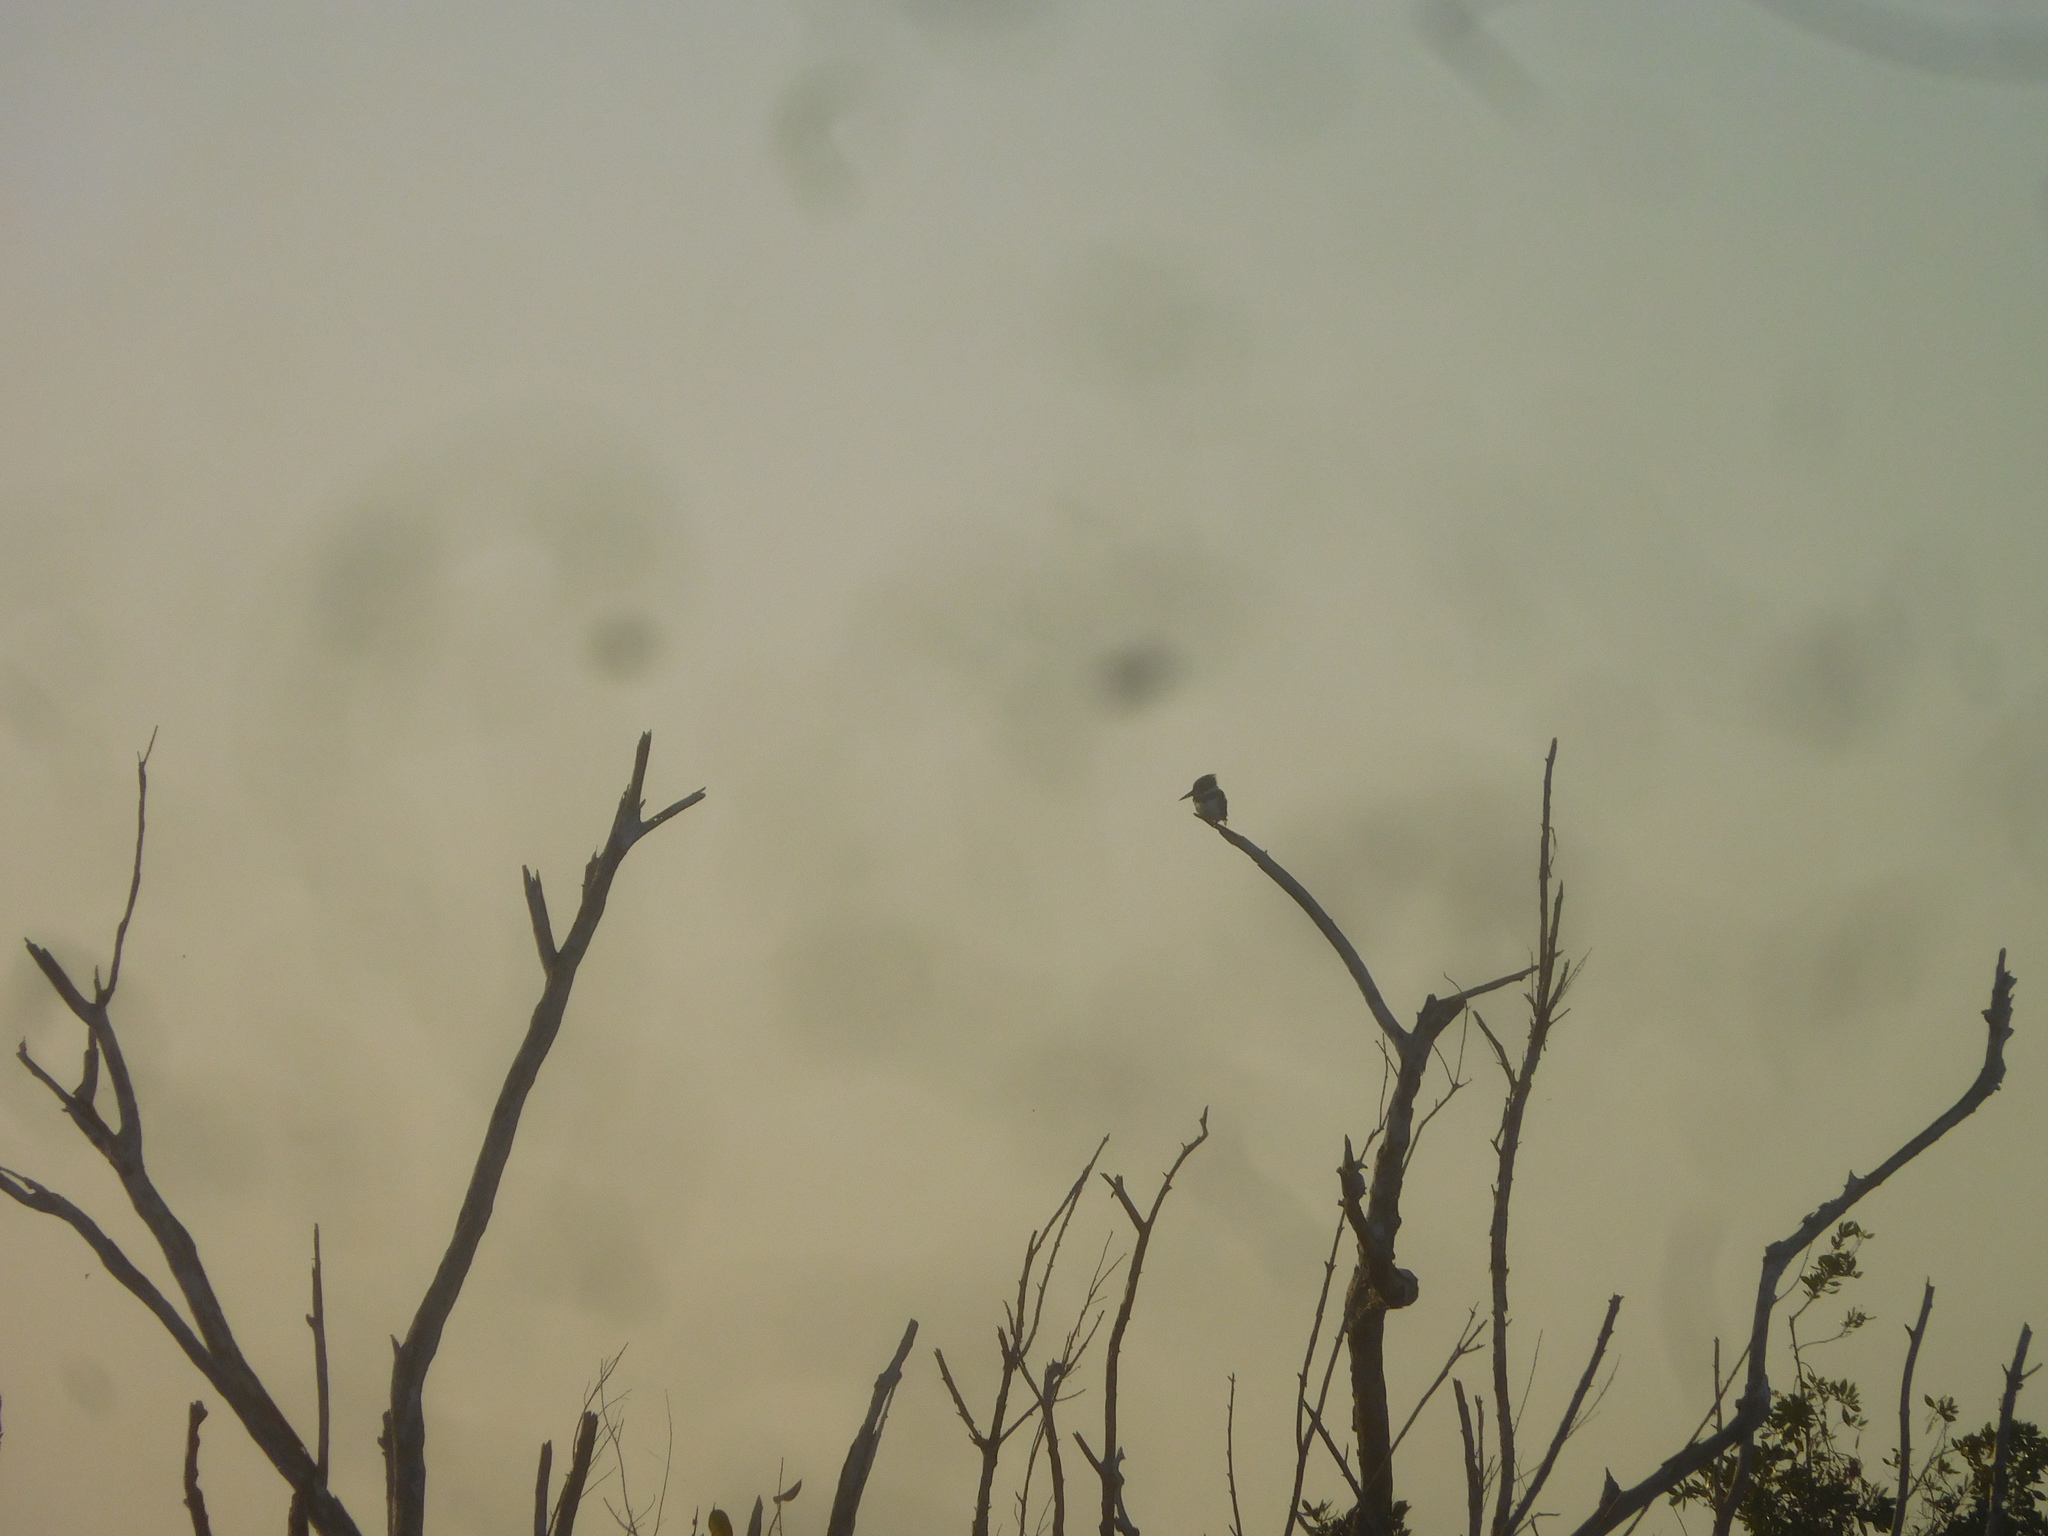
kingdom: Animalia
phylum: Chordata
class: Aves
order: Coraciiformes
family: Alcedinidae
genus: Megaceryle
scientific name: Megaceryle alcyon
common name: Belted kingfisher
